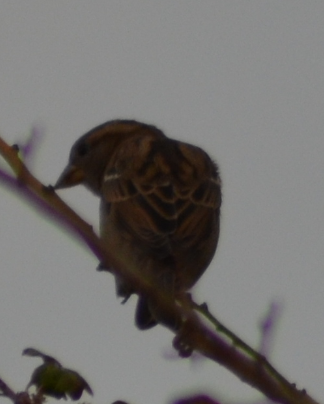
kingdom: Animalia
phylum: Chordata
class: Aves
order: Passeriformes
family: Passeridae
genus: Passer
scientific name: Passer domesticus
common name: House sparrow
